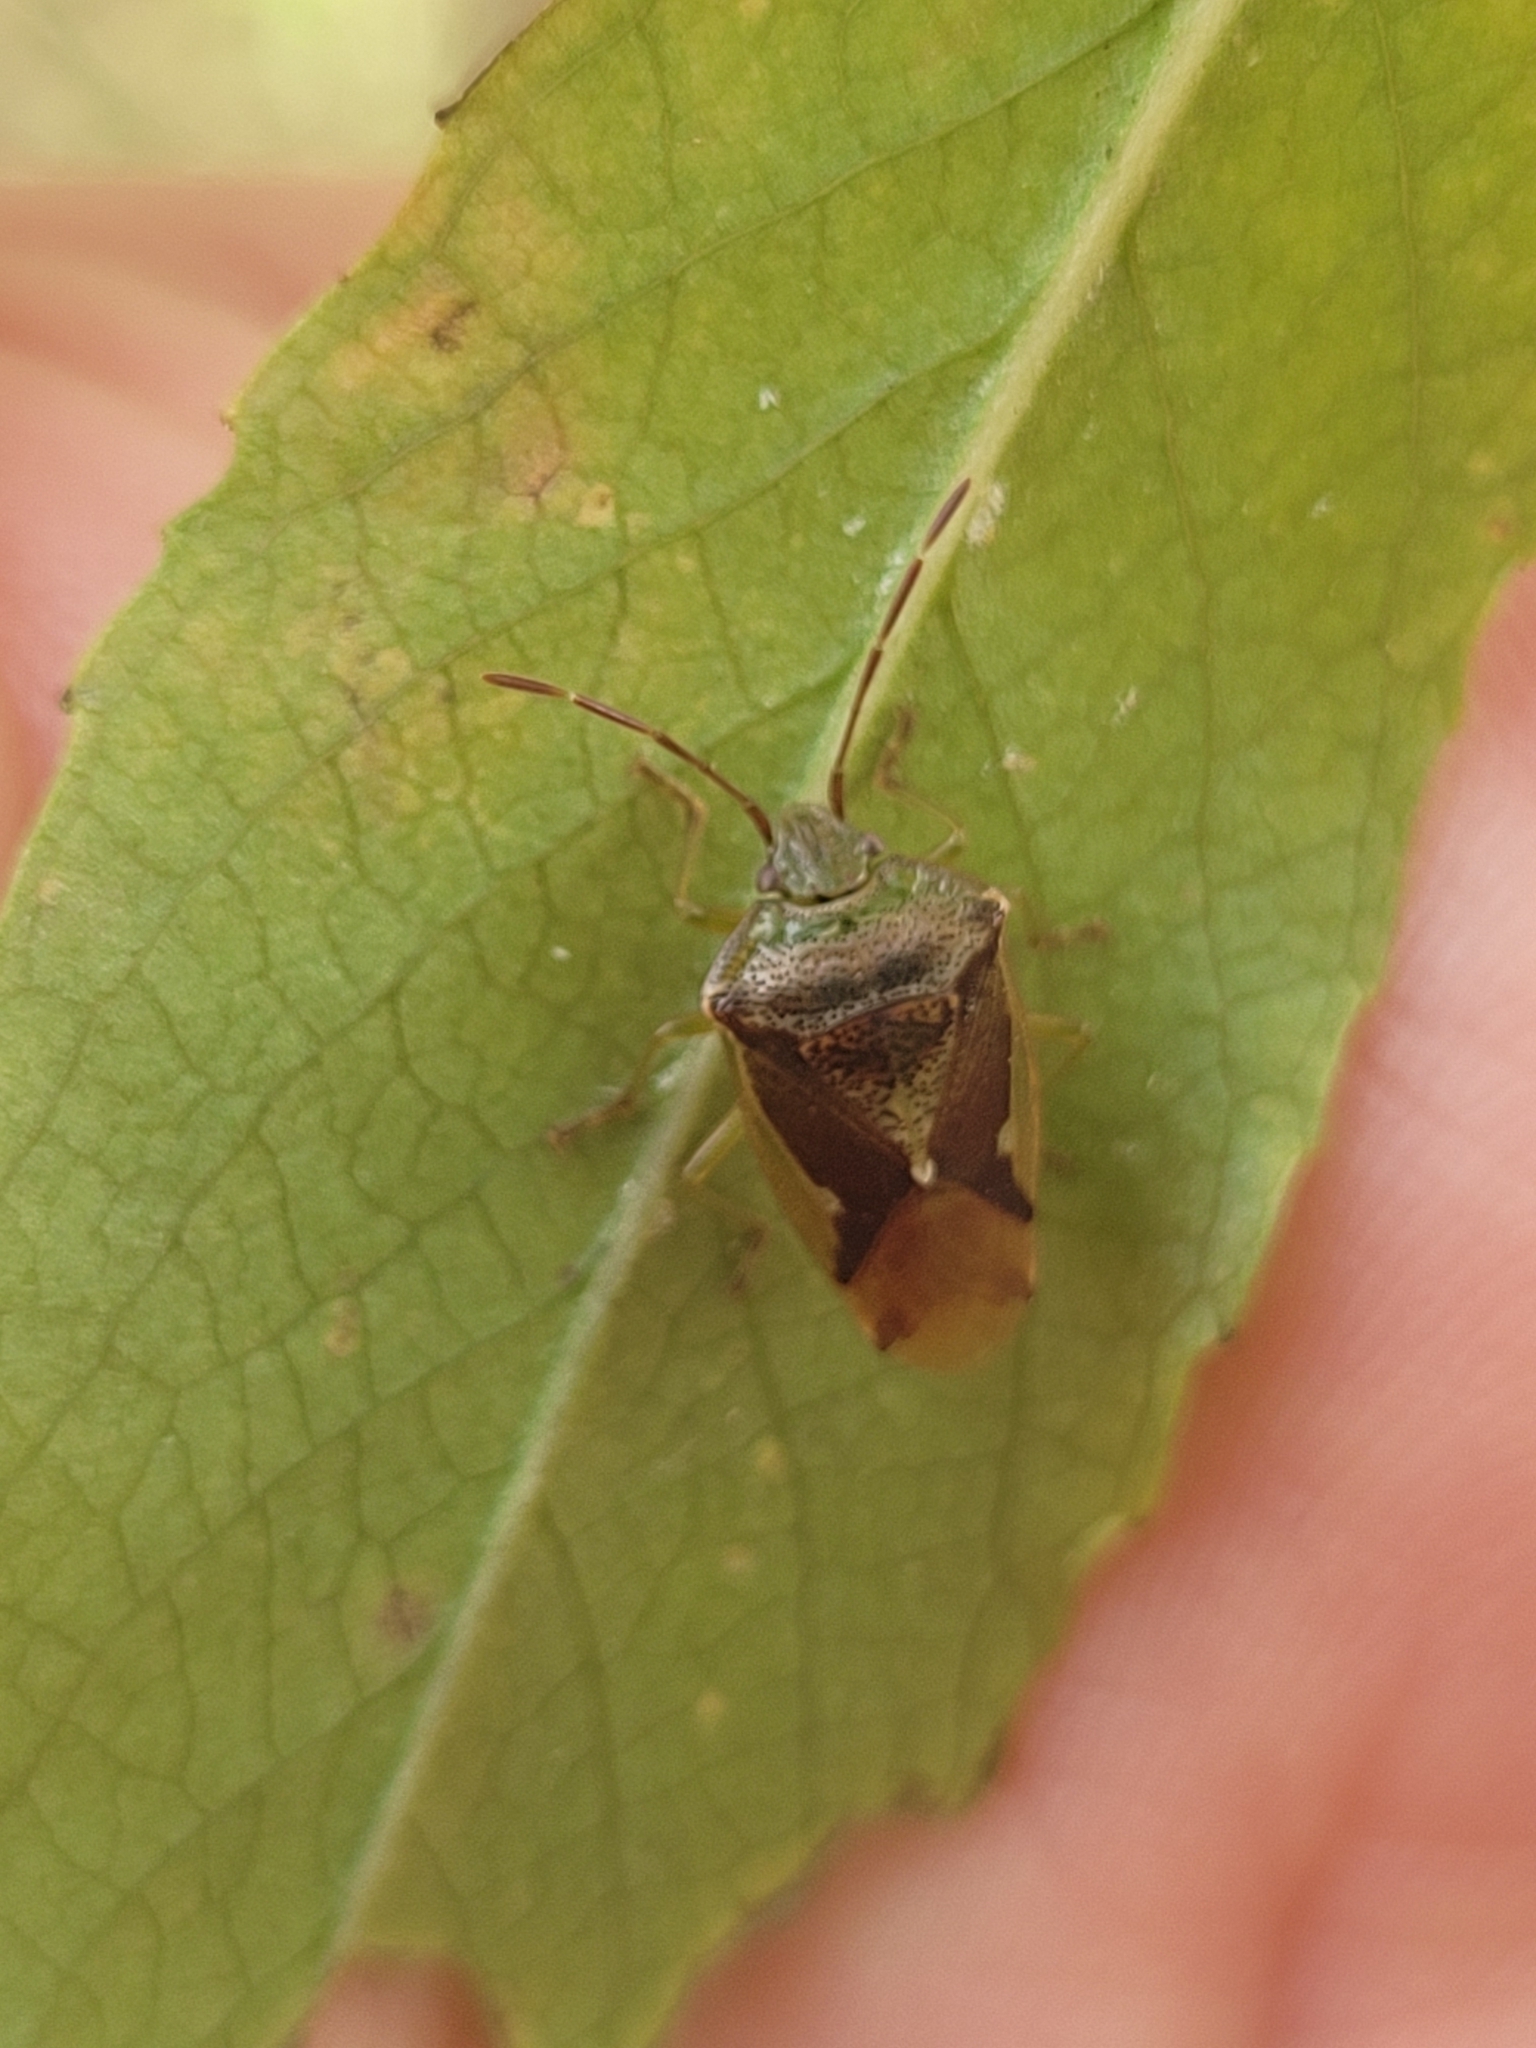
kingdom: Animalia
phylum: Arthropoda
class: Insecta
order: Hemiptera
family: Acanthosomatidae
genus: Oncacontias
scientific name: Oncacontias vittatus
